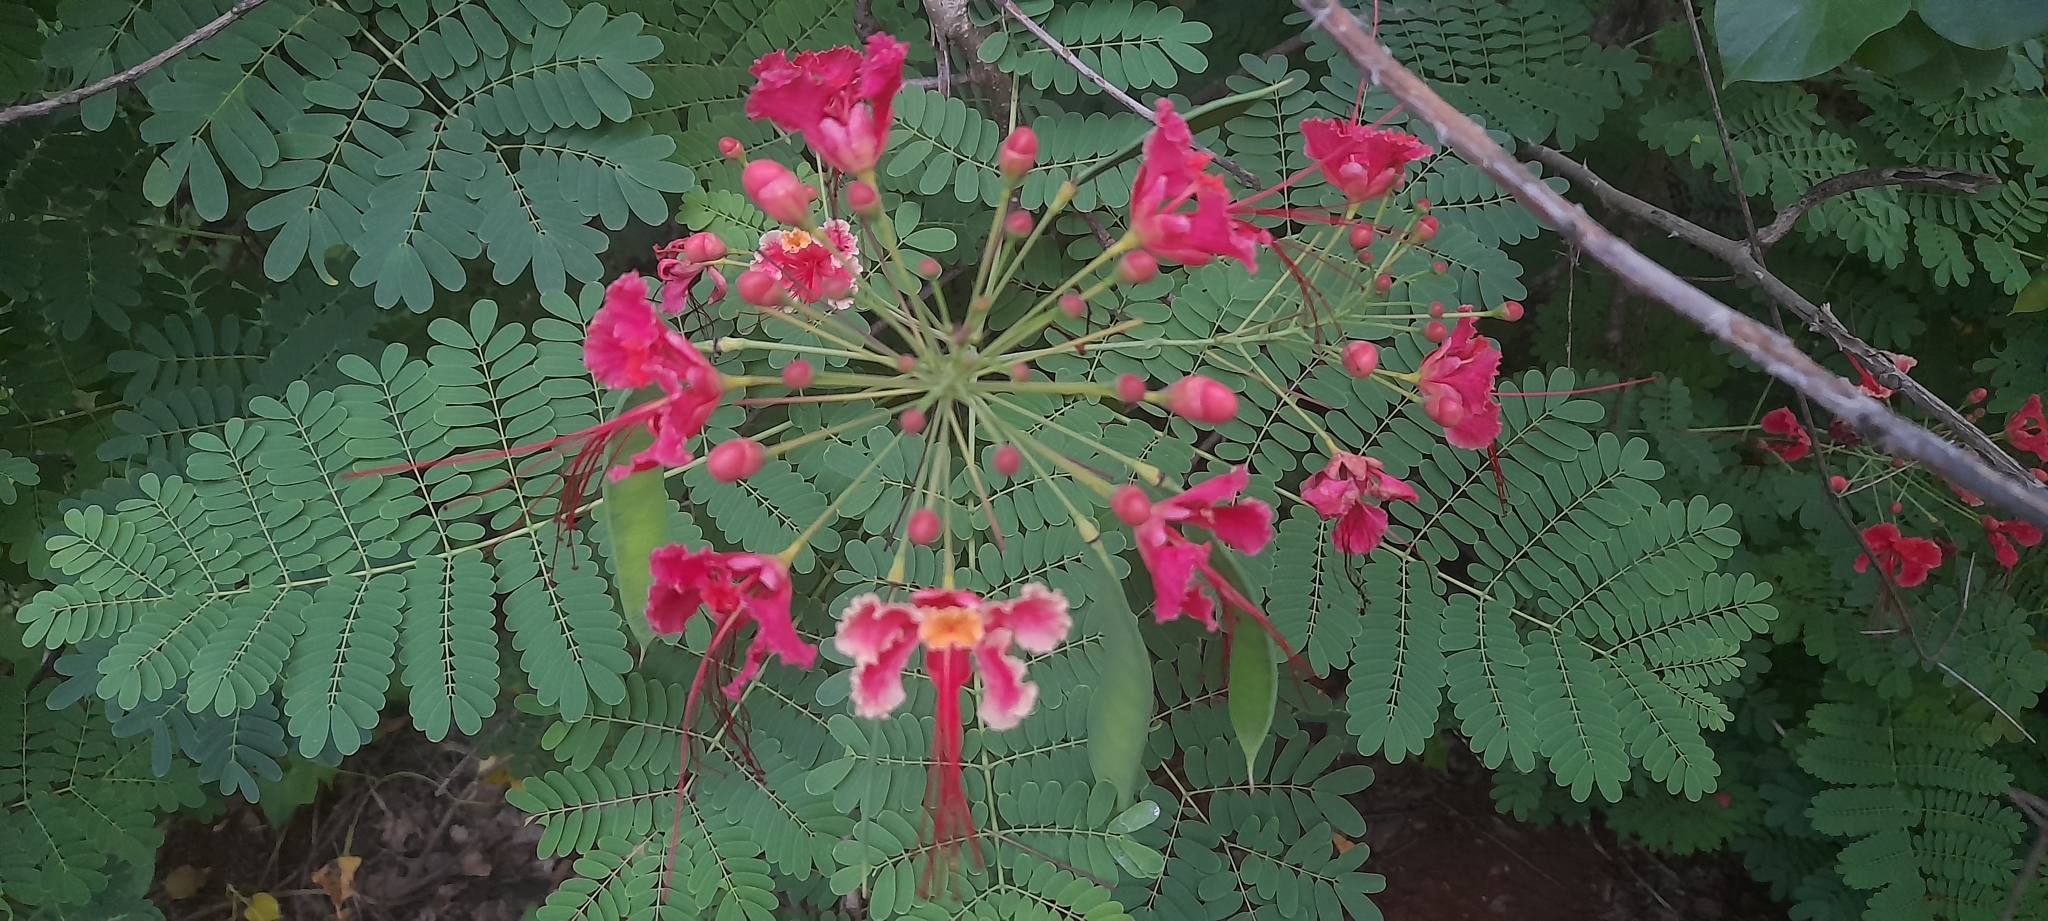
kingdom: Plantae
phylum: Tracheophyta
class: Magnoliopsida
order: Fabales
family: Fabaceae
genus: Caesalpinia
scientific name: Caesalpinia pulcherrima
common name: Pride-of-barbados
